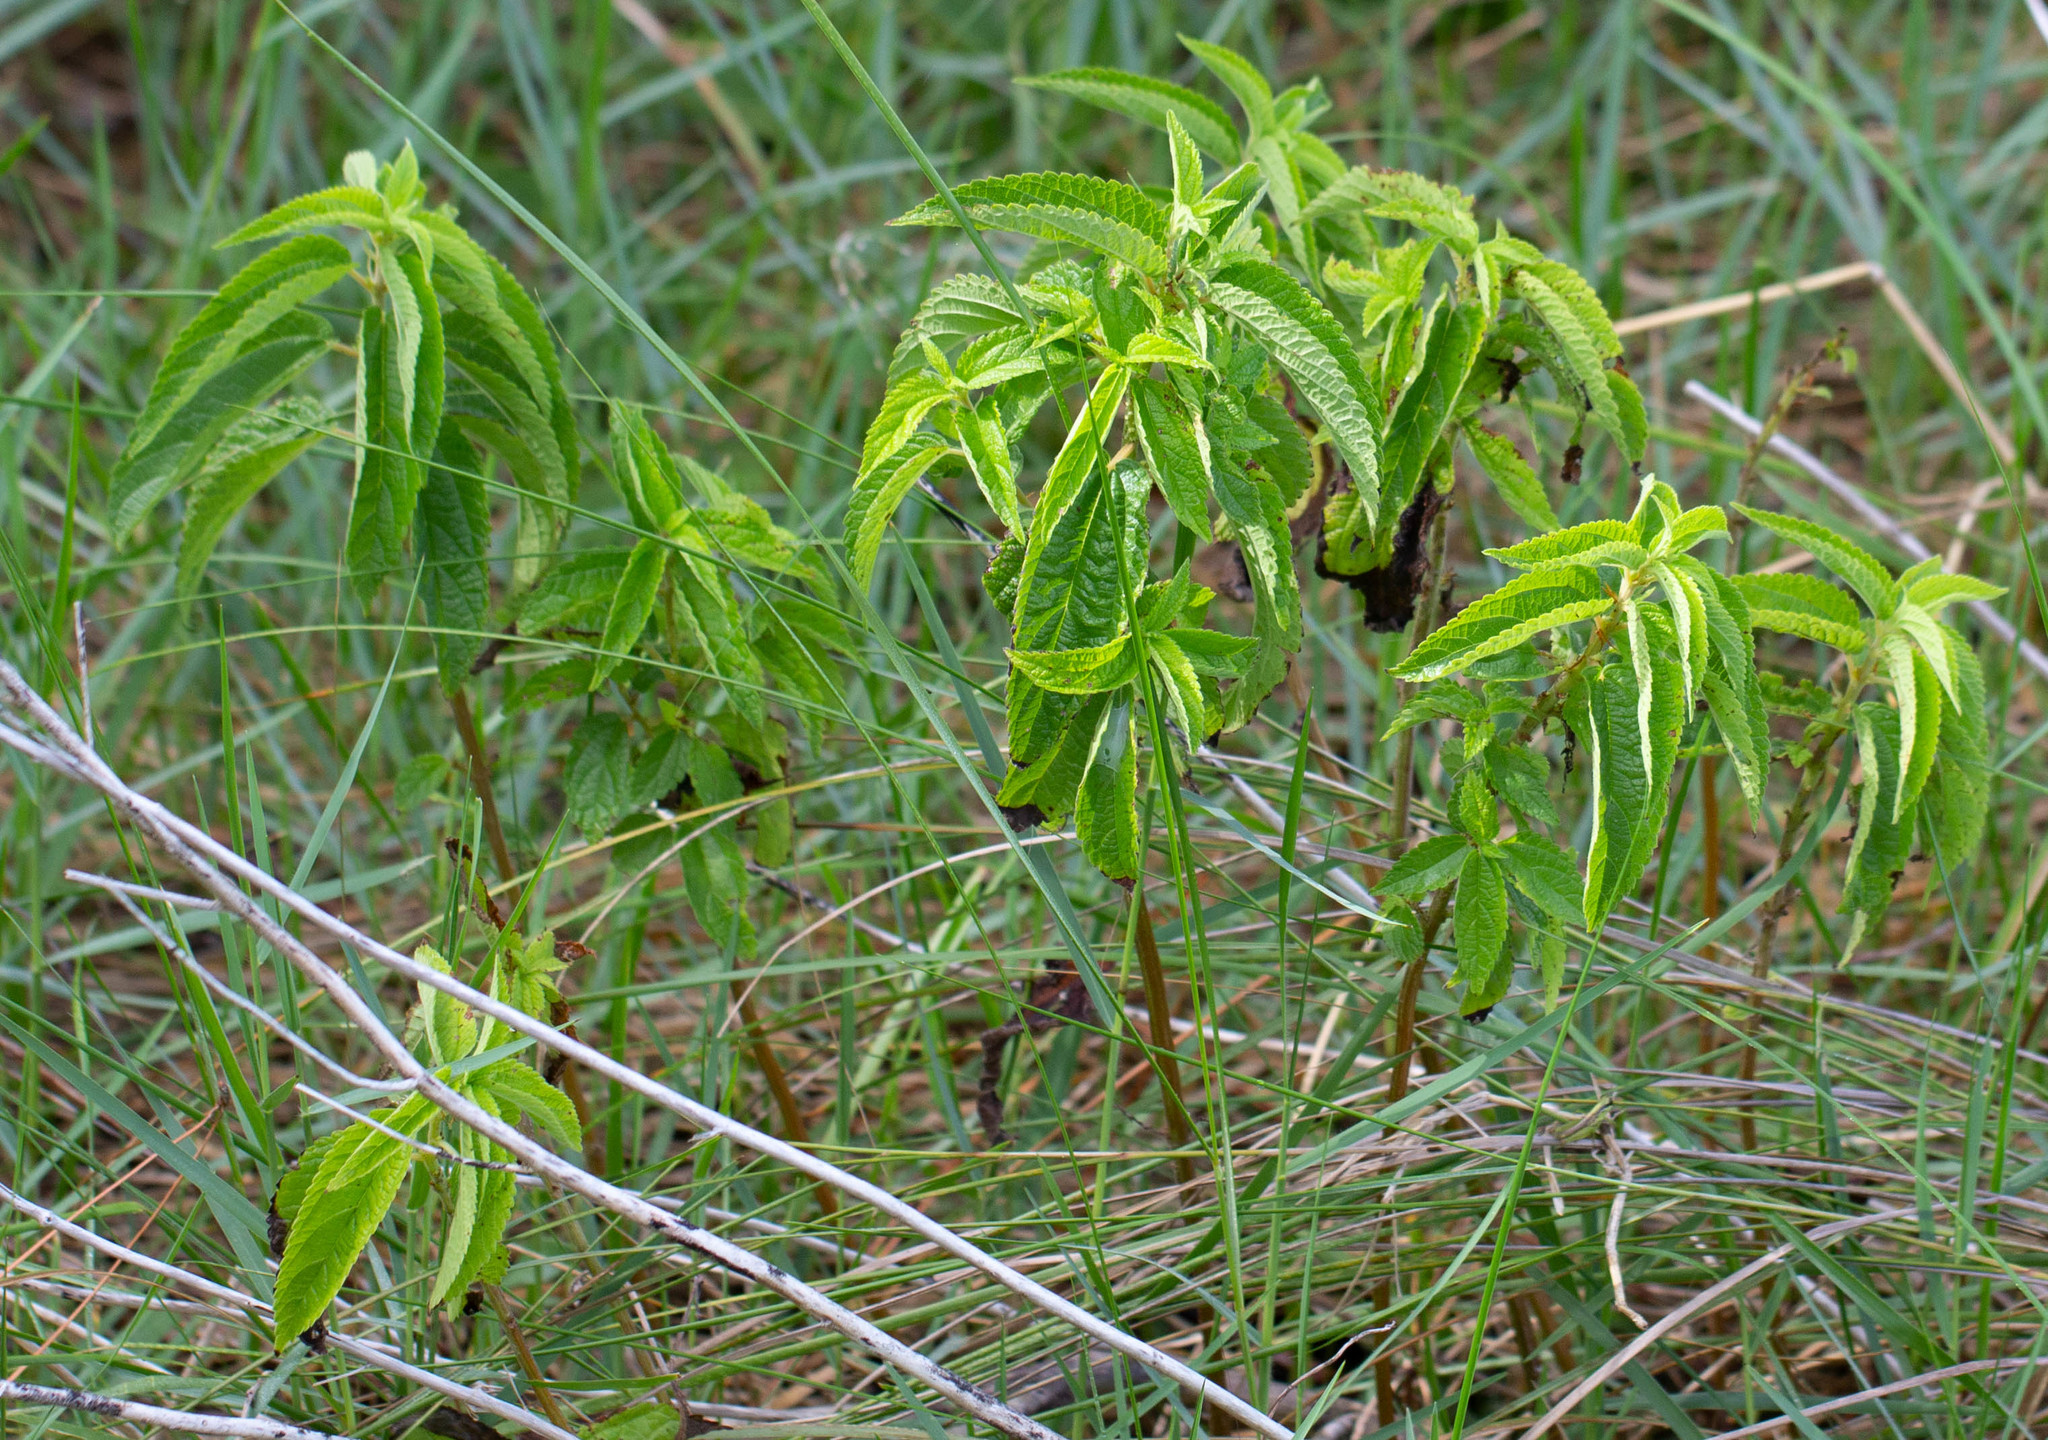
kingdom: Plantae
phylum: Tracheophyta
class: Magnoliopsida
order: Rosales
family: Urticaceae
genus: Boehmeria
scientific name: Boehmeria cylindrica
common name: Bog-hemp
